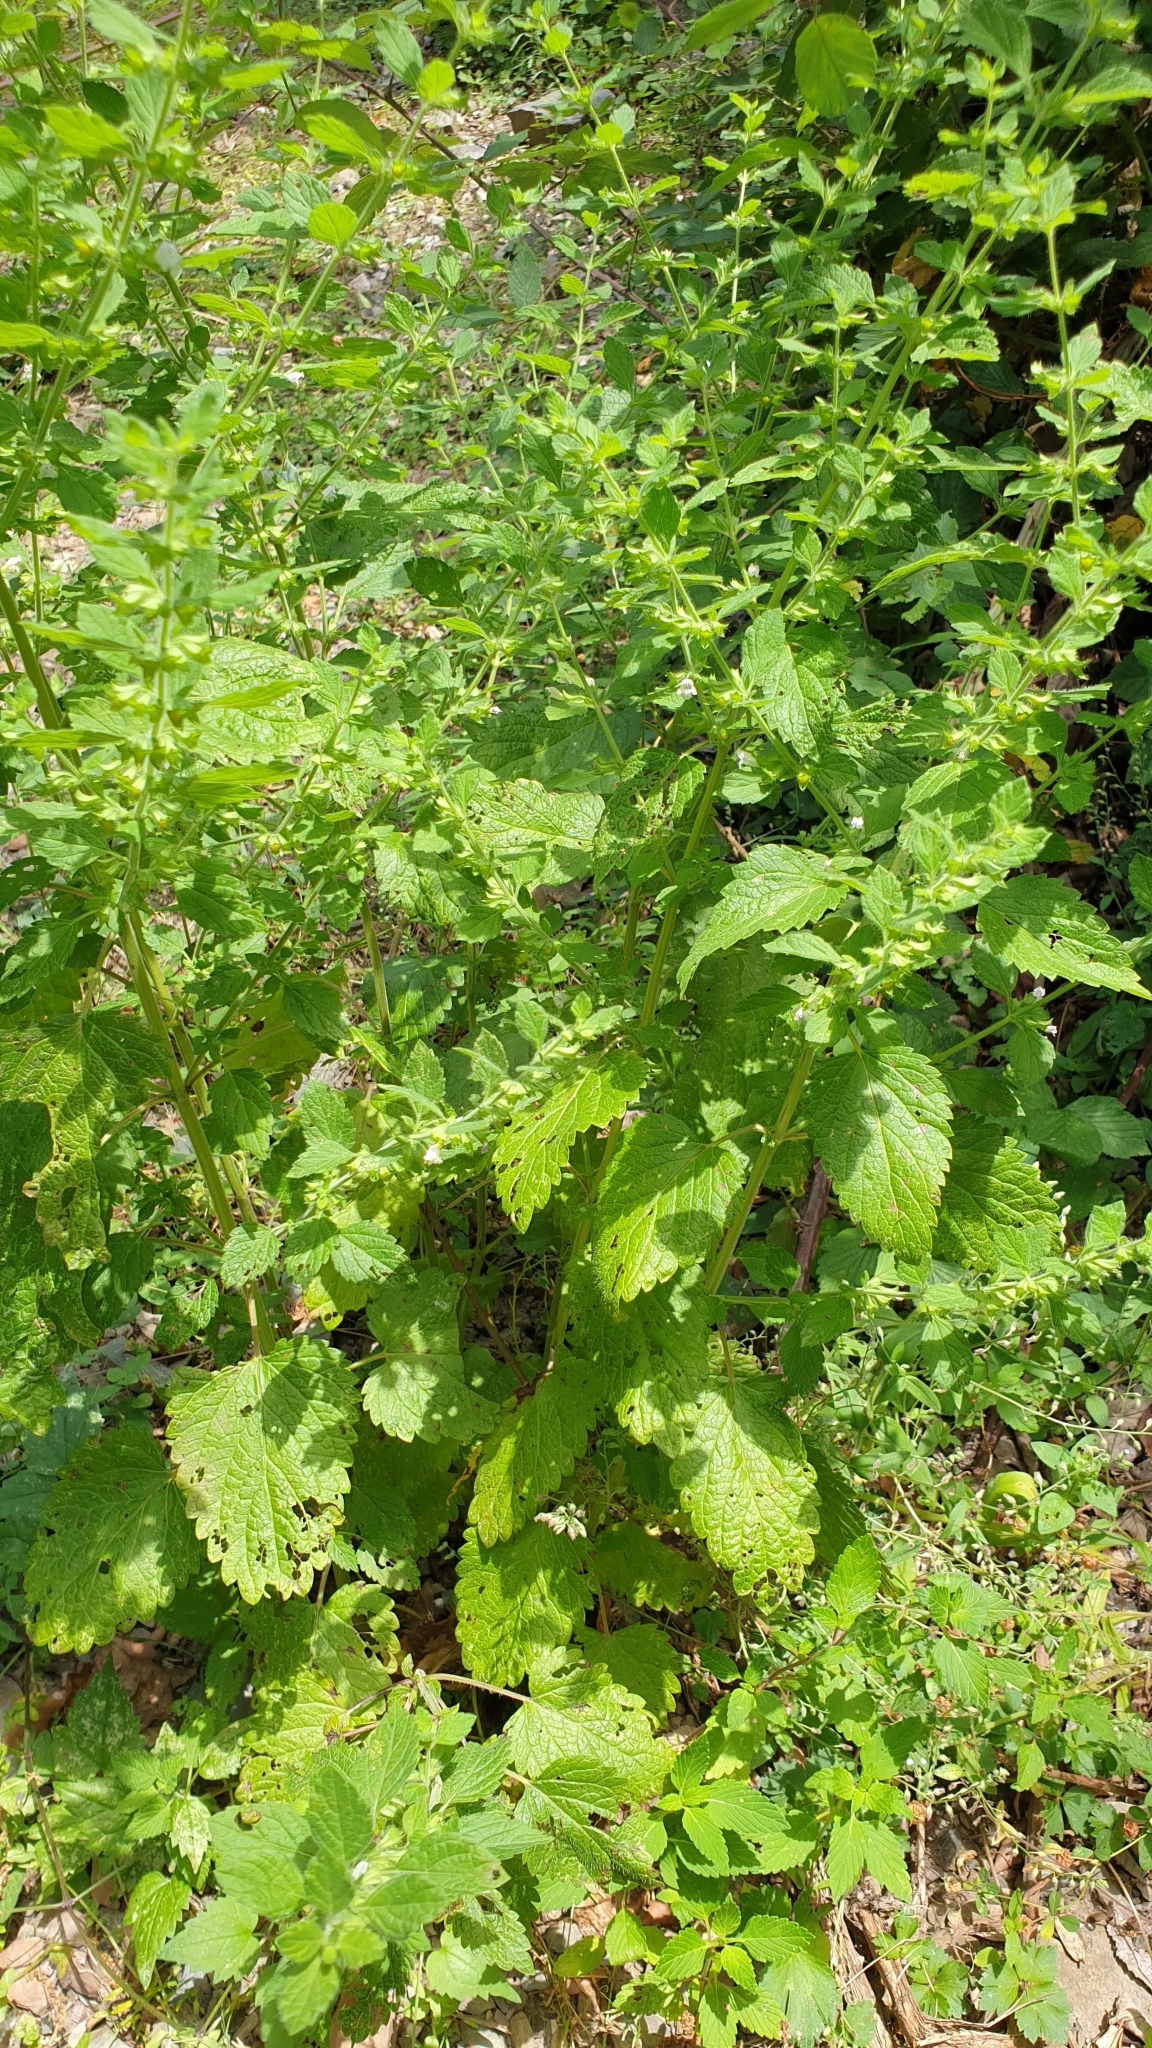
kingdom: Plantae
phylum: Tracheophyta
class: Magnoliopsida
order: Lamiales
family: Lamiaceae
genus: Melissa
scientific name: Melissa officinalis
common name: Balm
